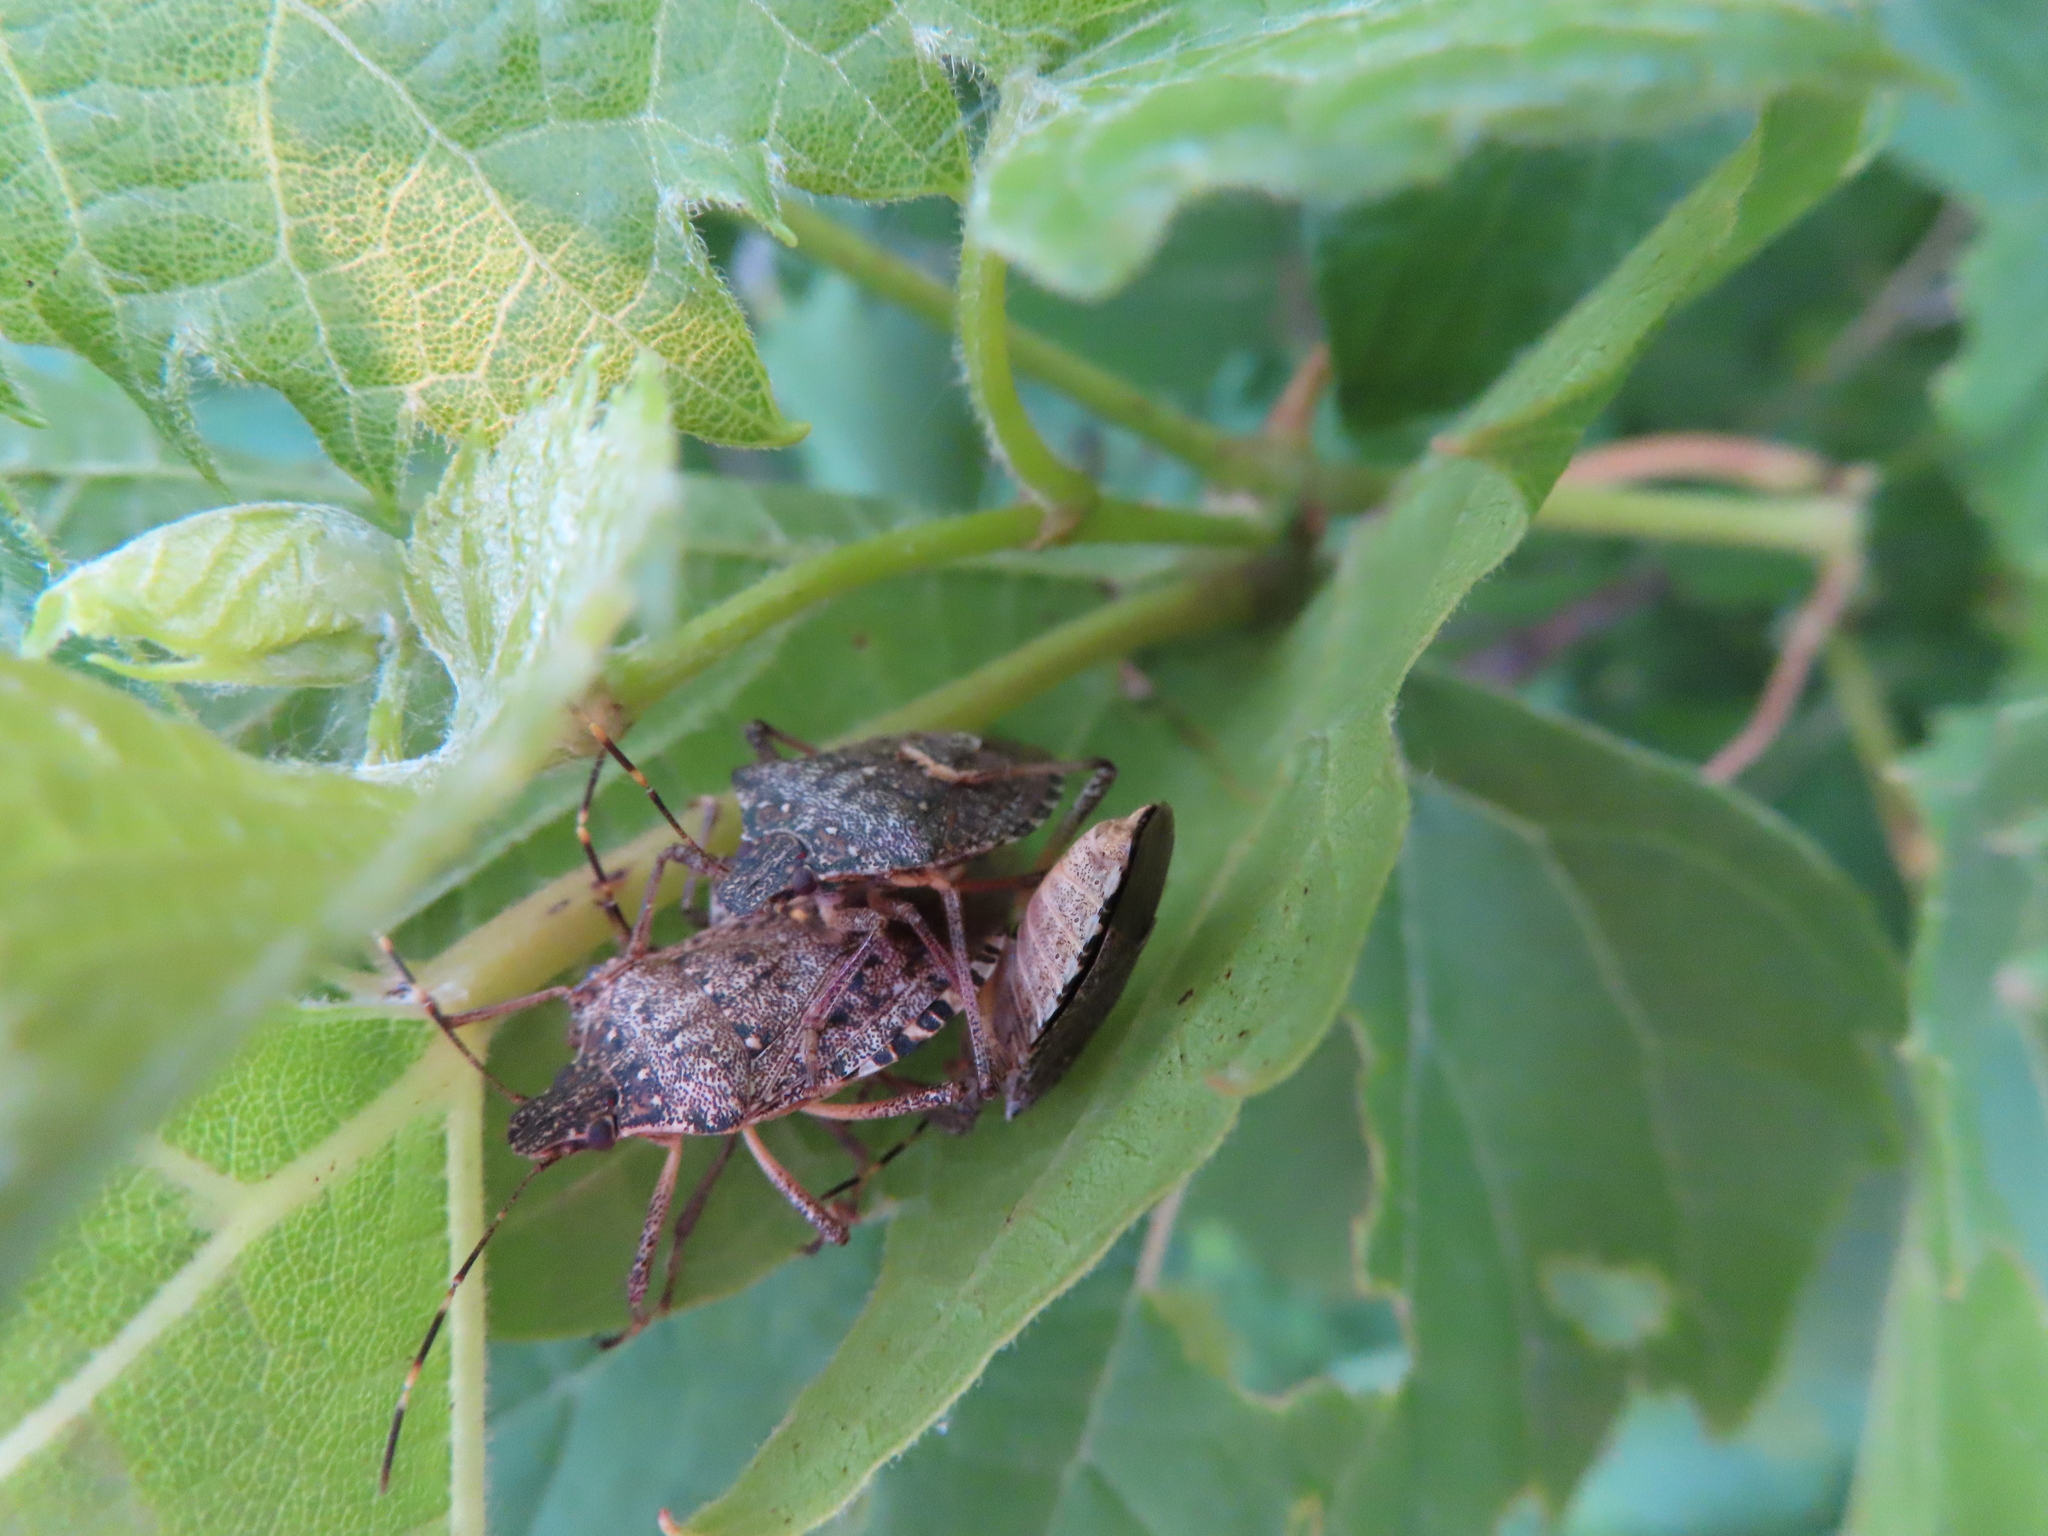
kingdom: Animalia
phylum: Arthropoda
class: Insecta
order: Hemiptera
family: Pentatomidae
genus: Halyomorpha
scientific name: Halyomorpha halys
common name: Brown marmorated stink bug
